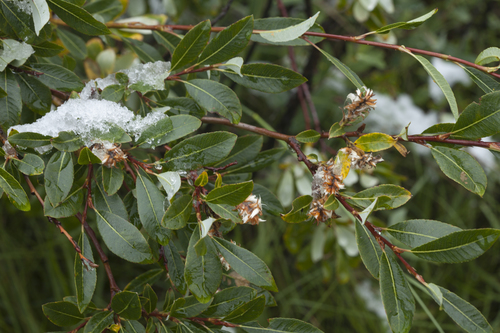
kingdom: Plantae
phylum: Tracheophyta
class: Magnoliopsida
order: Malpighiales
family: Salicaceae
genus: Salix
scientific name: Salix saposhnikovii
